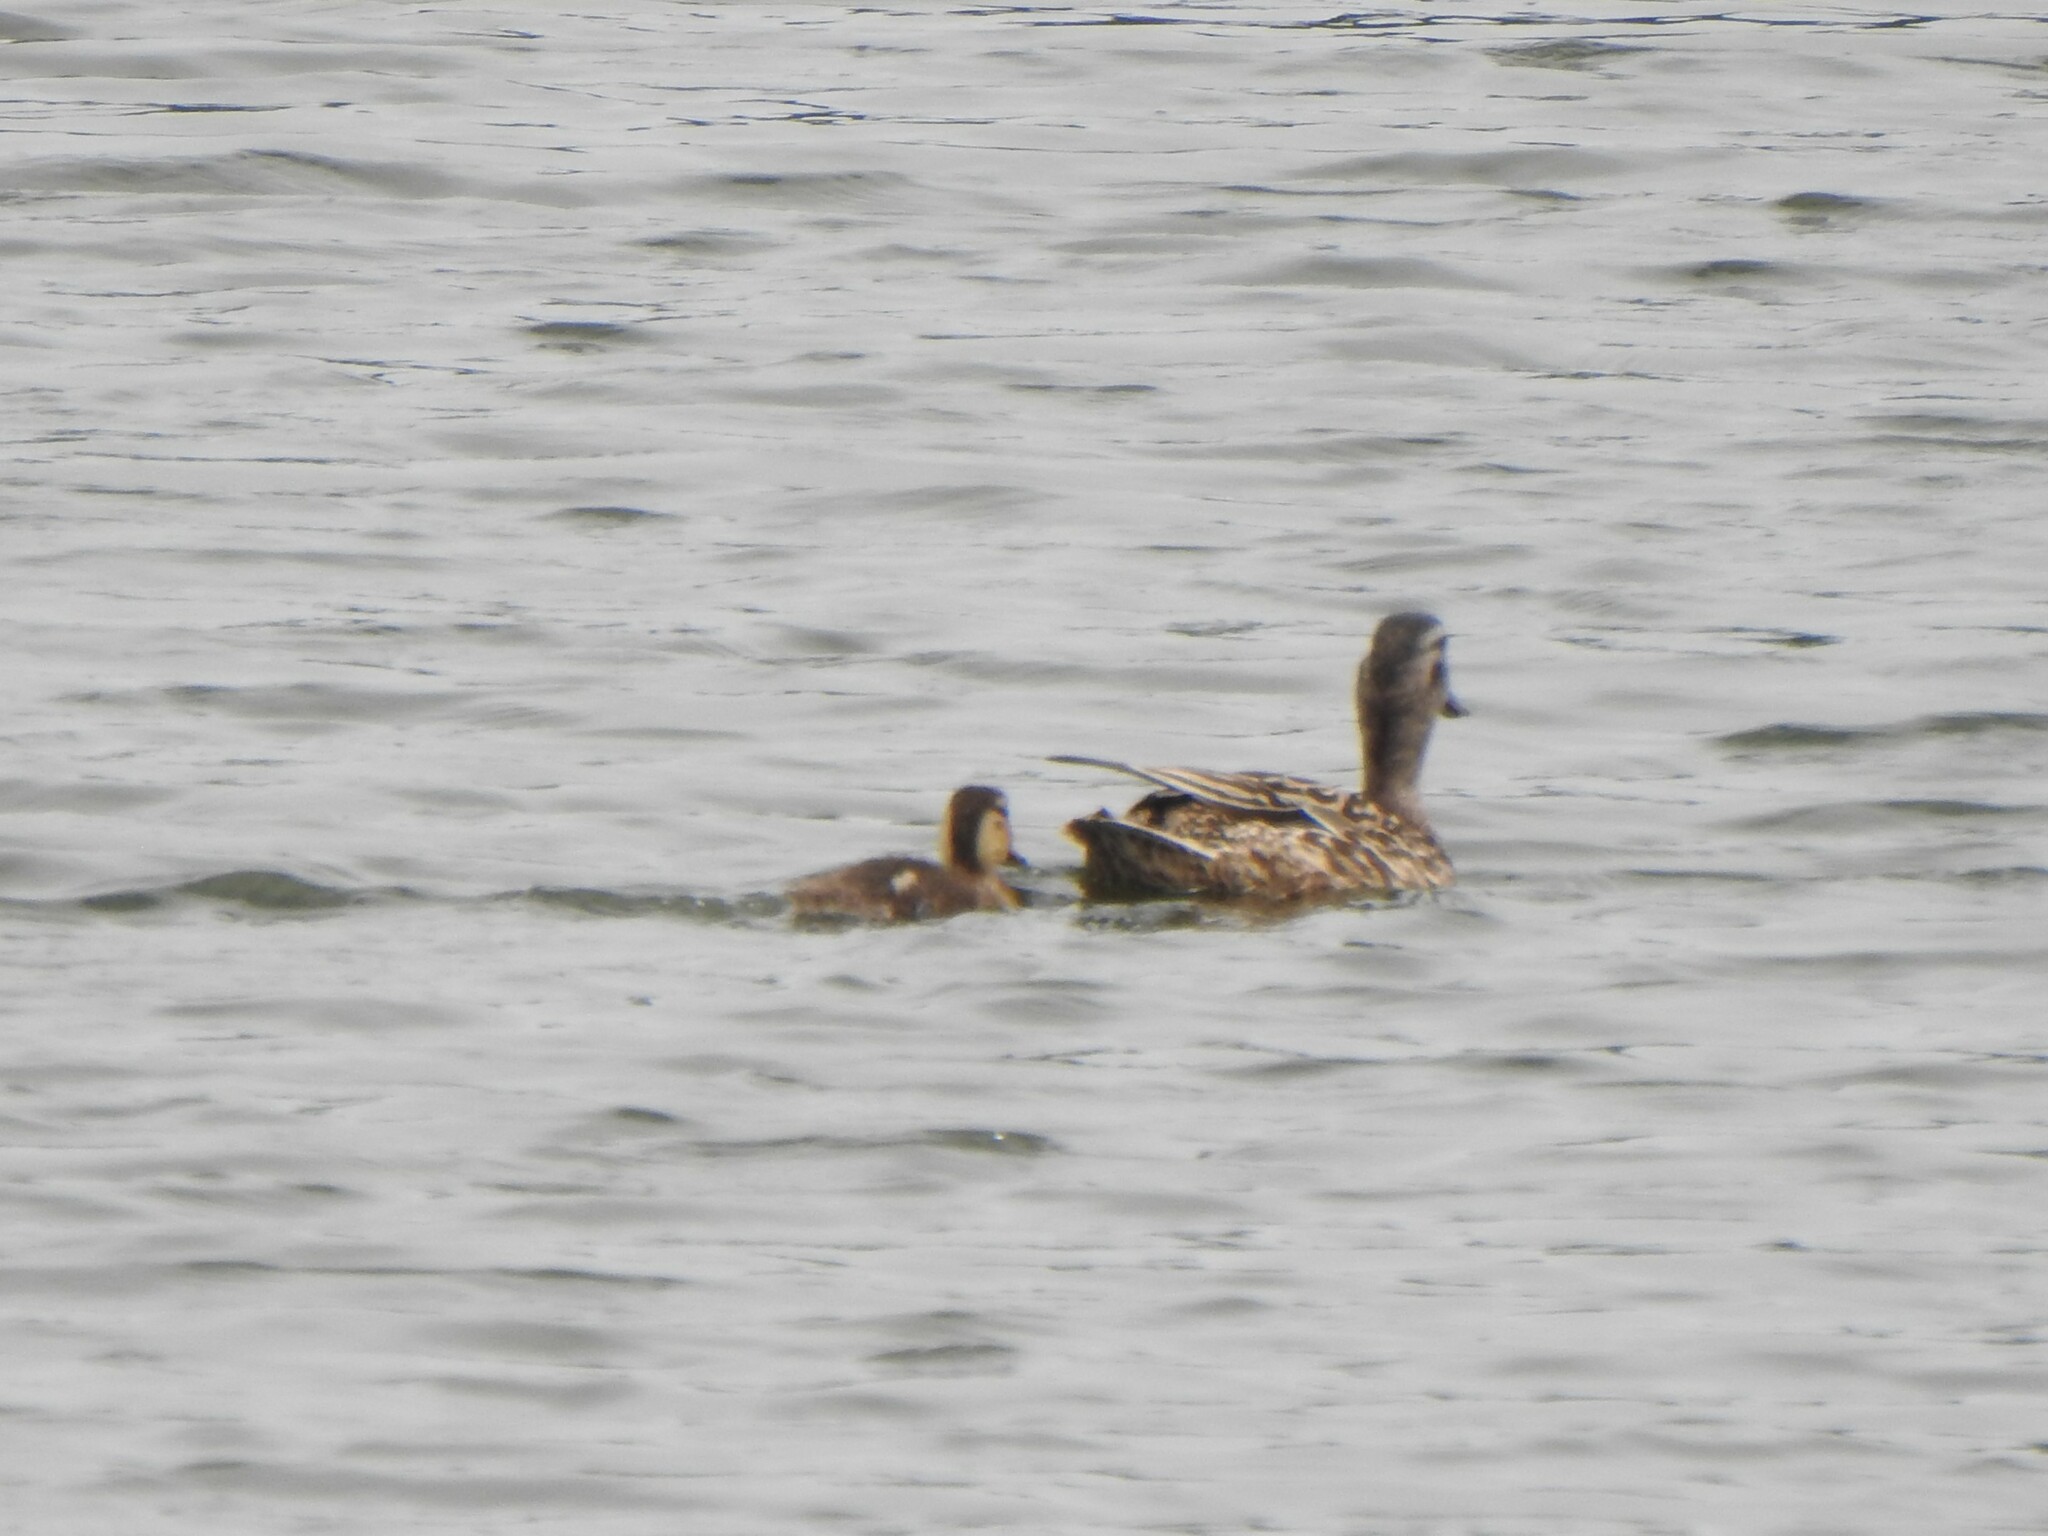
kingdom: Animalia
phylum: Chordata
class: Aves
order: Anseriformes
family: Anatidae
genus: Anas
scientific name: Anas platyrhynchos
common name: Mallard
